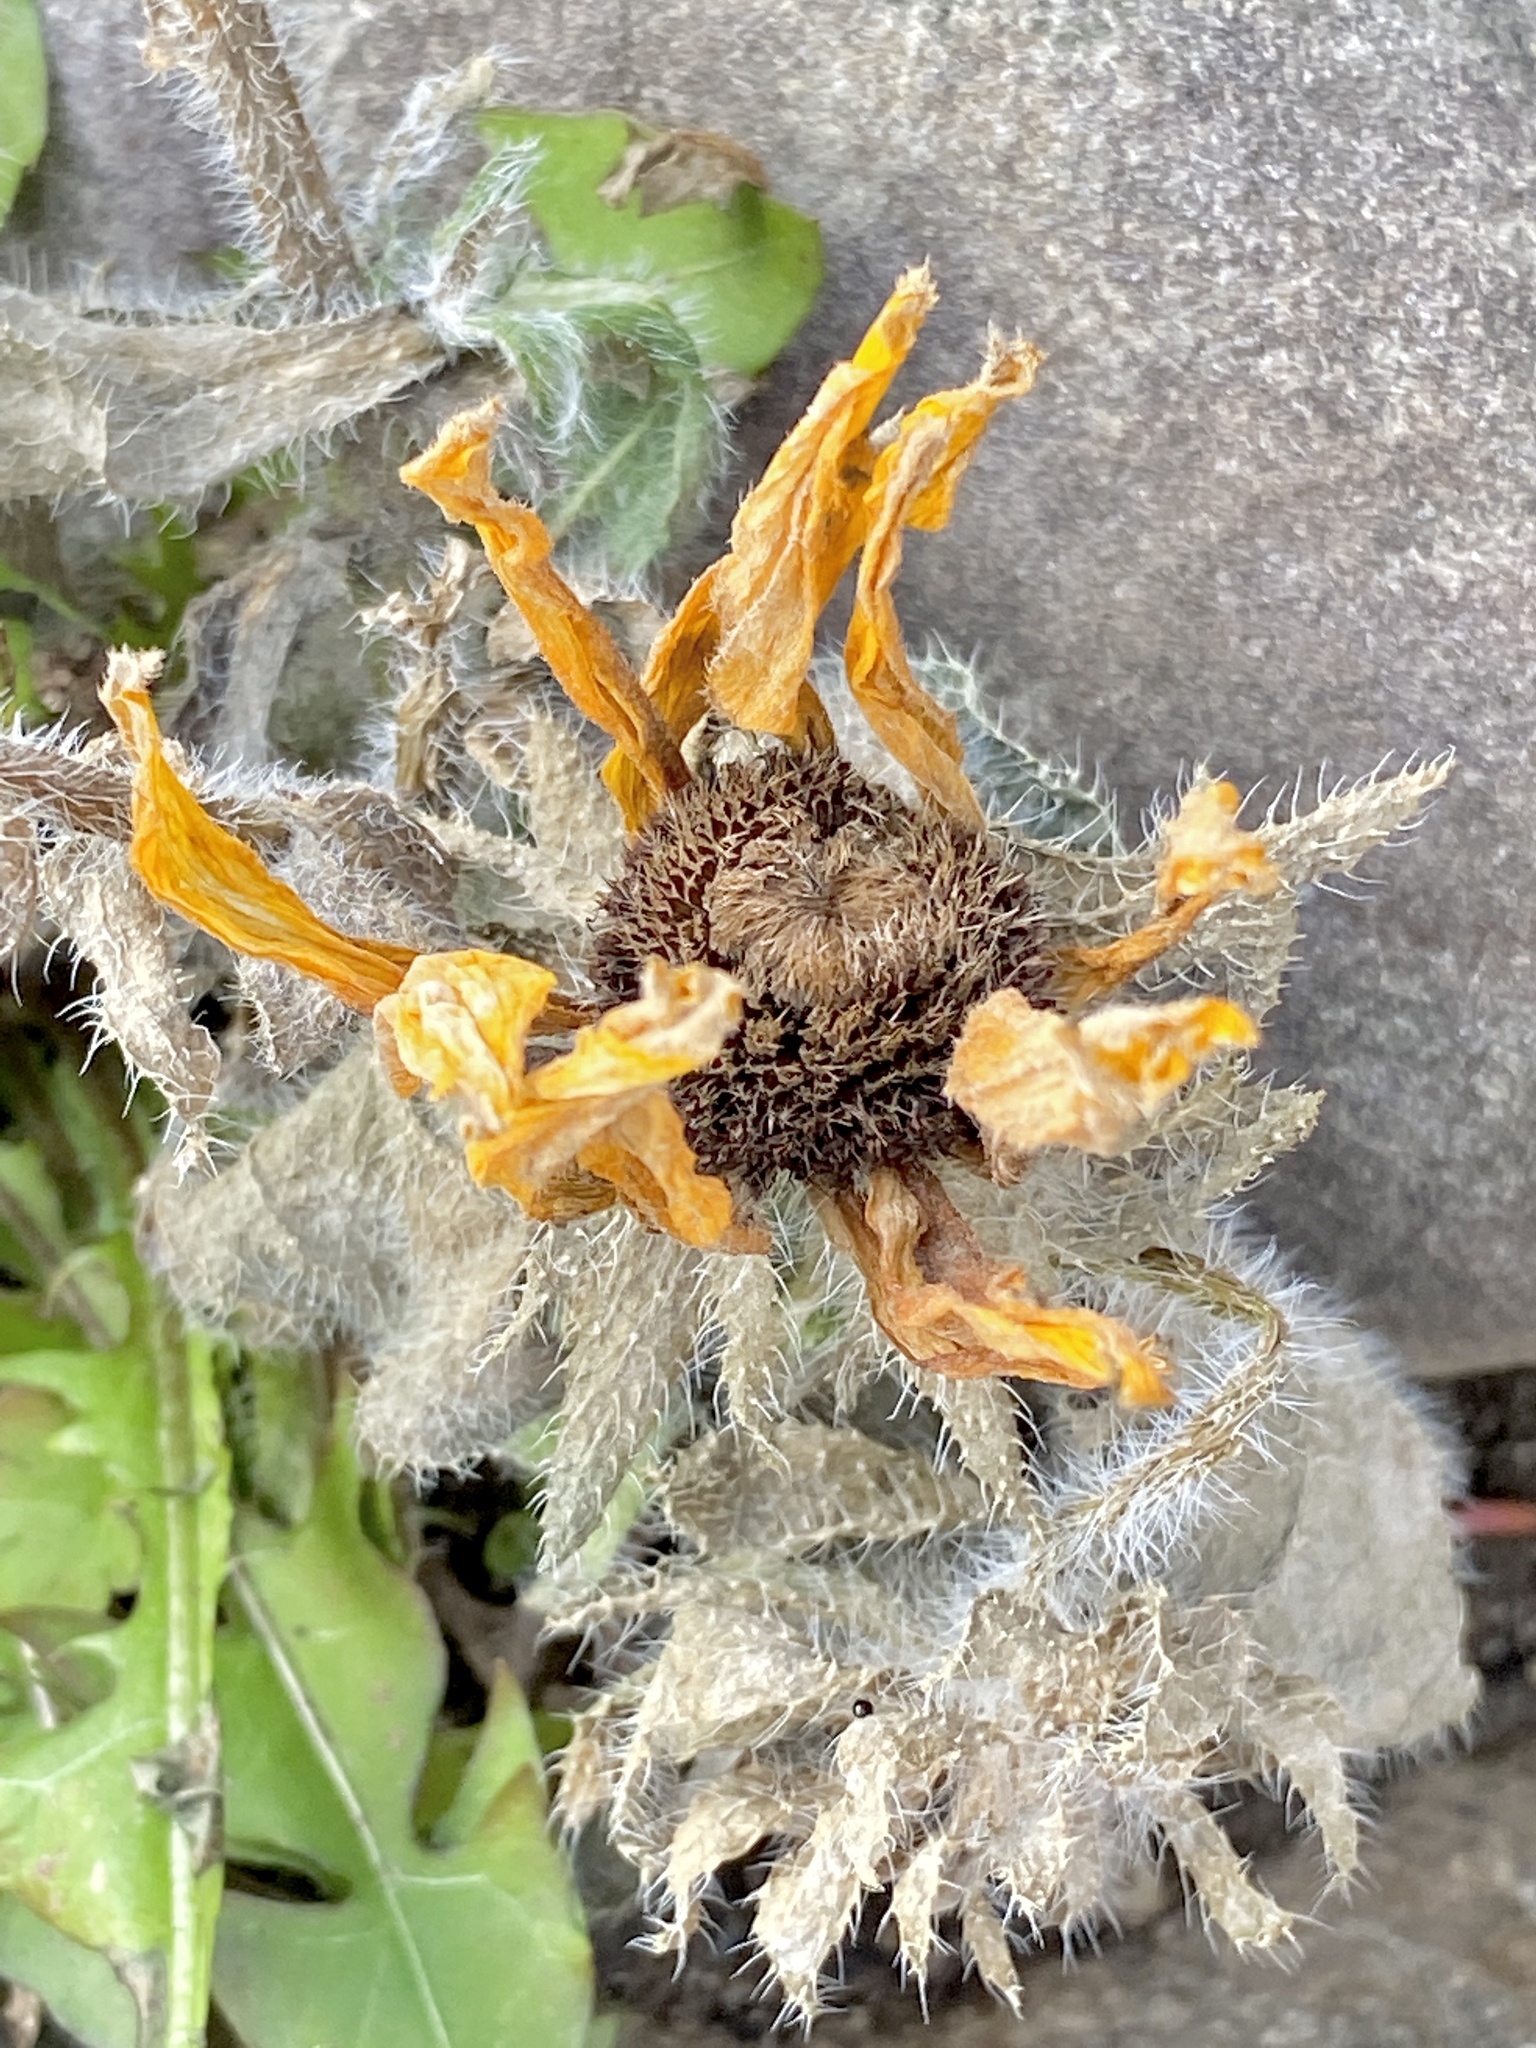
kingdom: Plantae
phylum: Tracheophyta
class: Magnoliopsida
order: Asterales
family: Asteraceae
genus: Rudbeckia
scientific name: Rudbeckia hirta
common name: Black-eyed-susan
